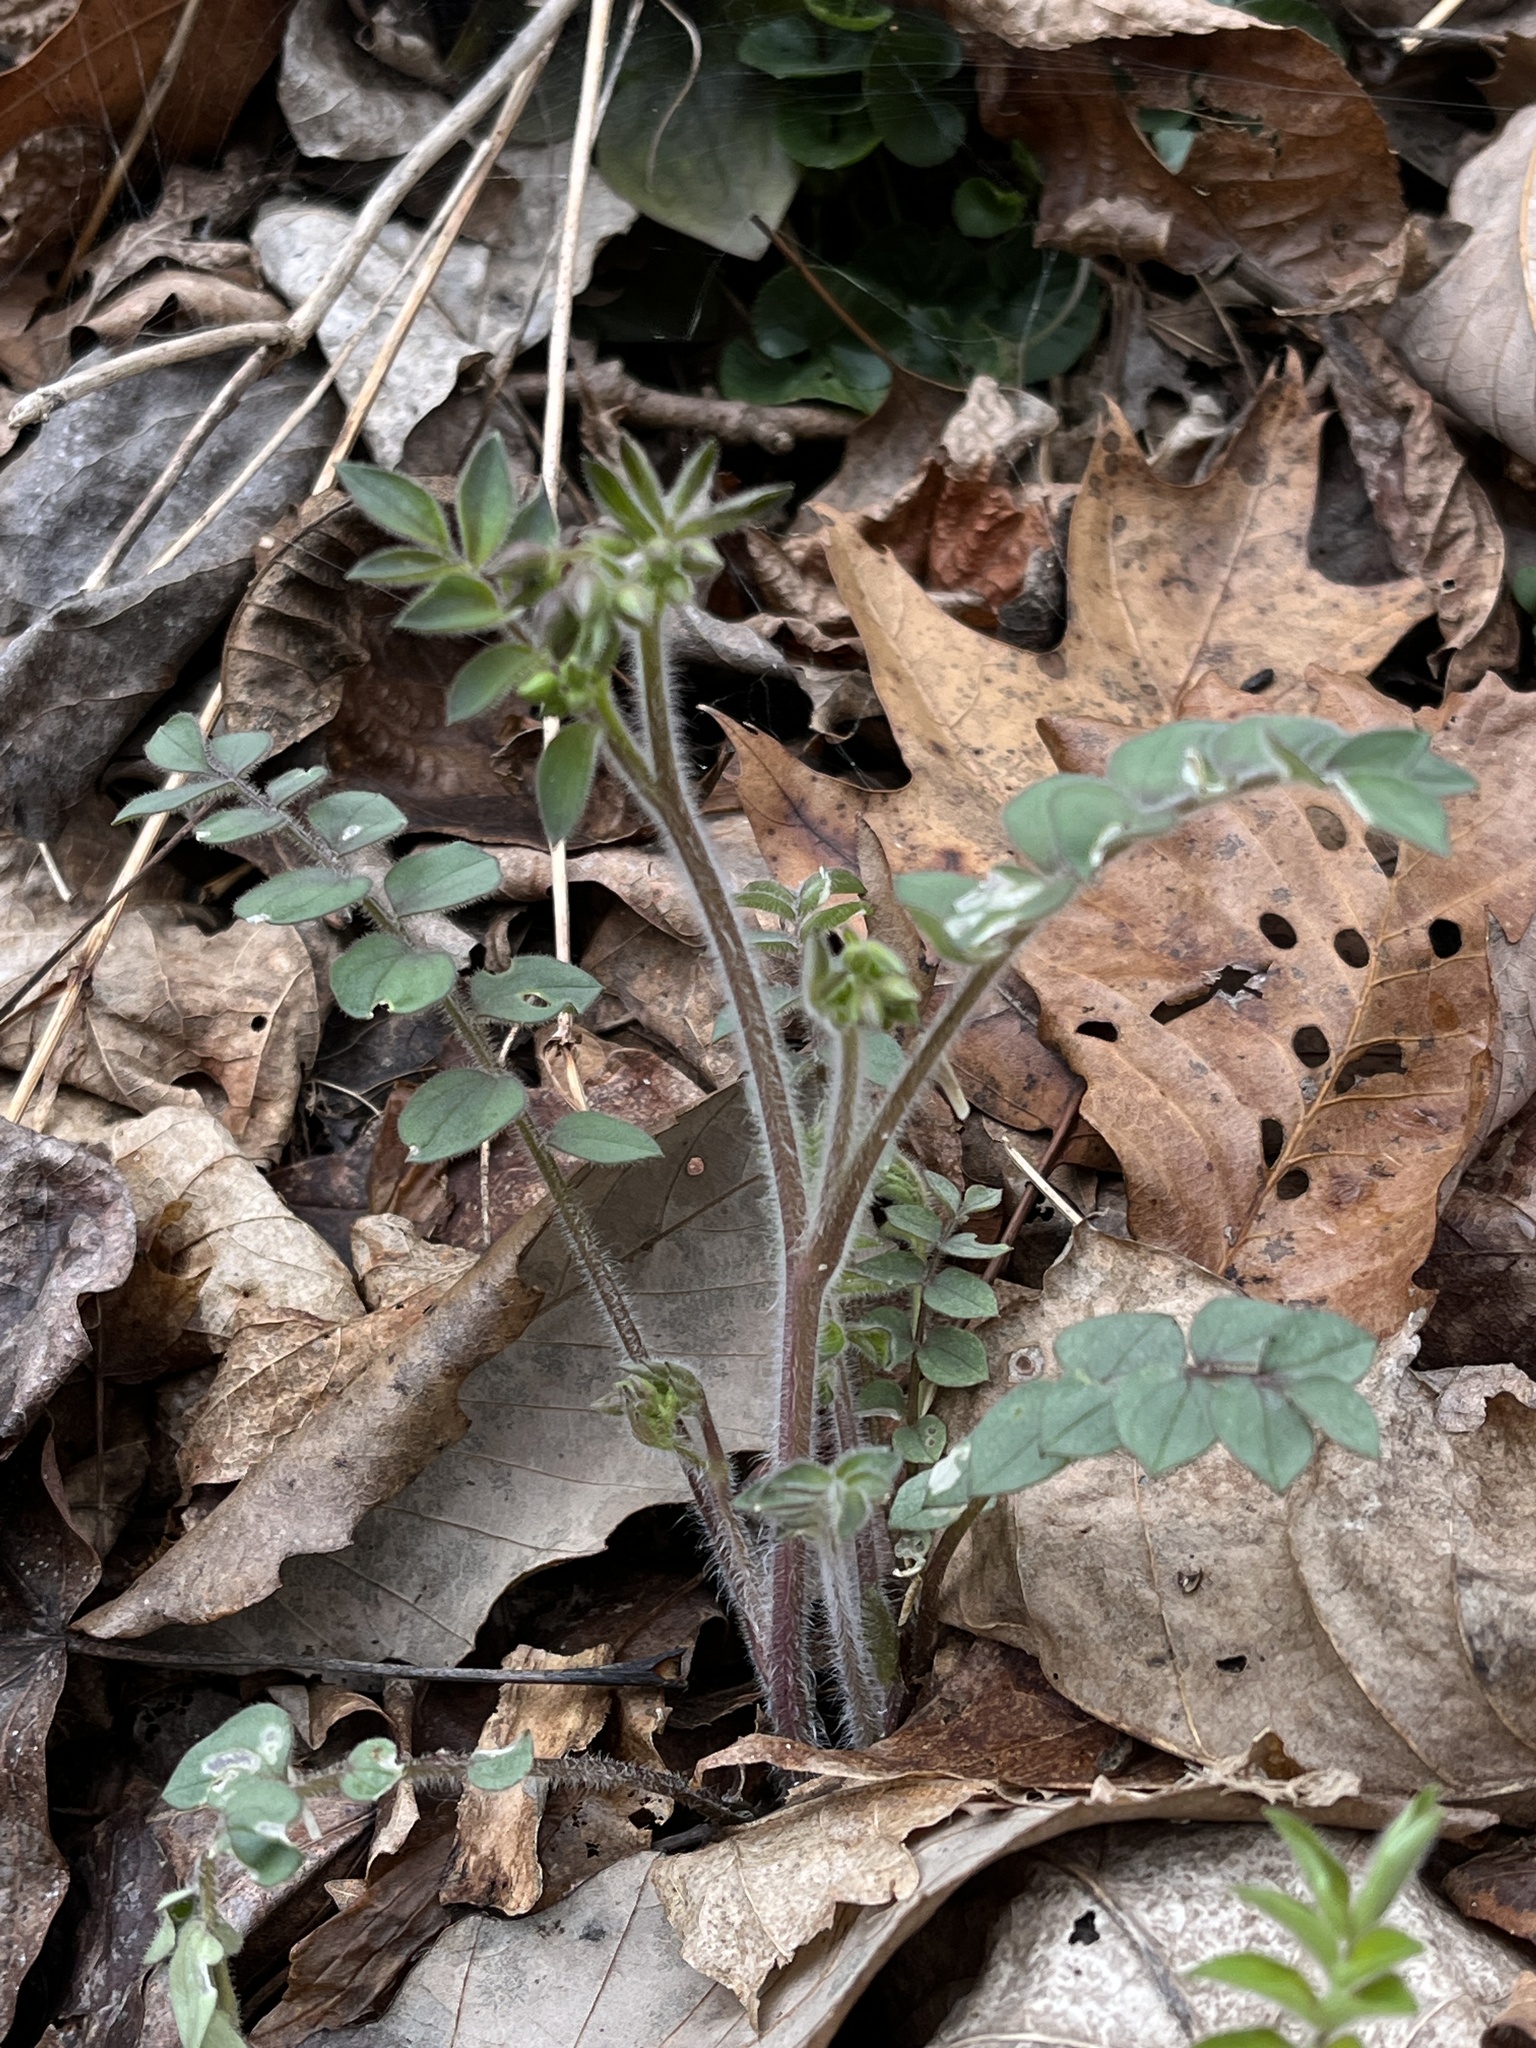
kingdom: Plantae
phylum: Tracheophyta
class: Magnoliopsida
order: Ericales
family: Polemoniaceae
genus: Polemonium
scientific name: Polemonium reptans
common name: Creeping jacob's-ladder
